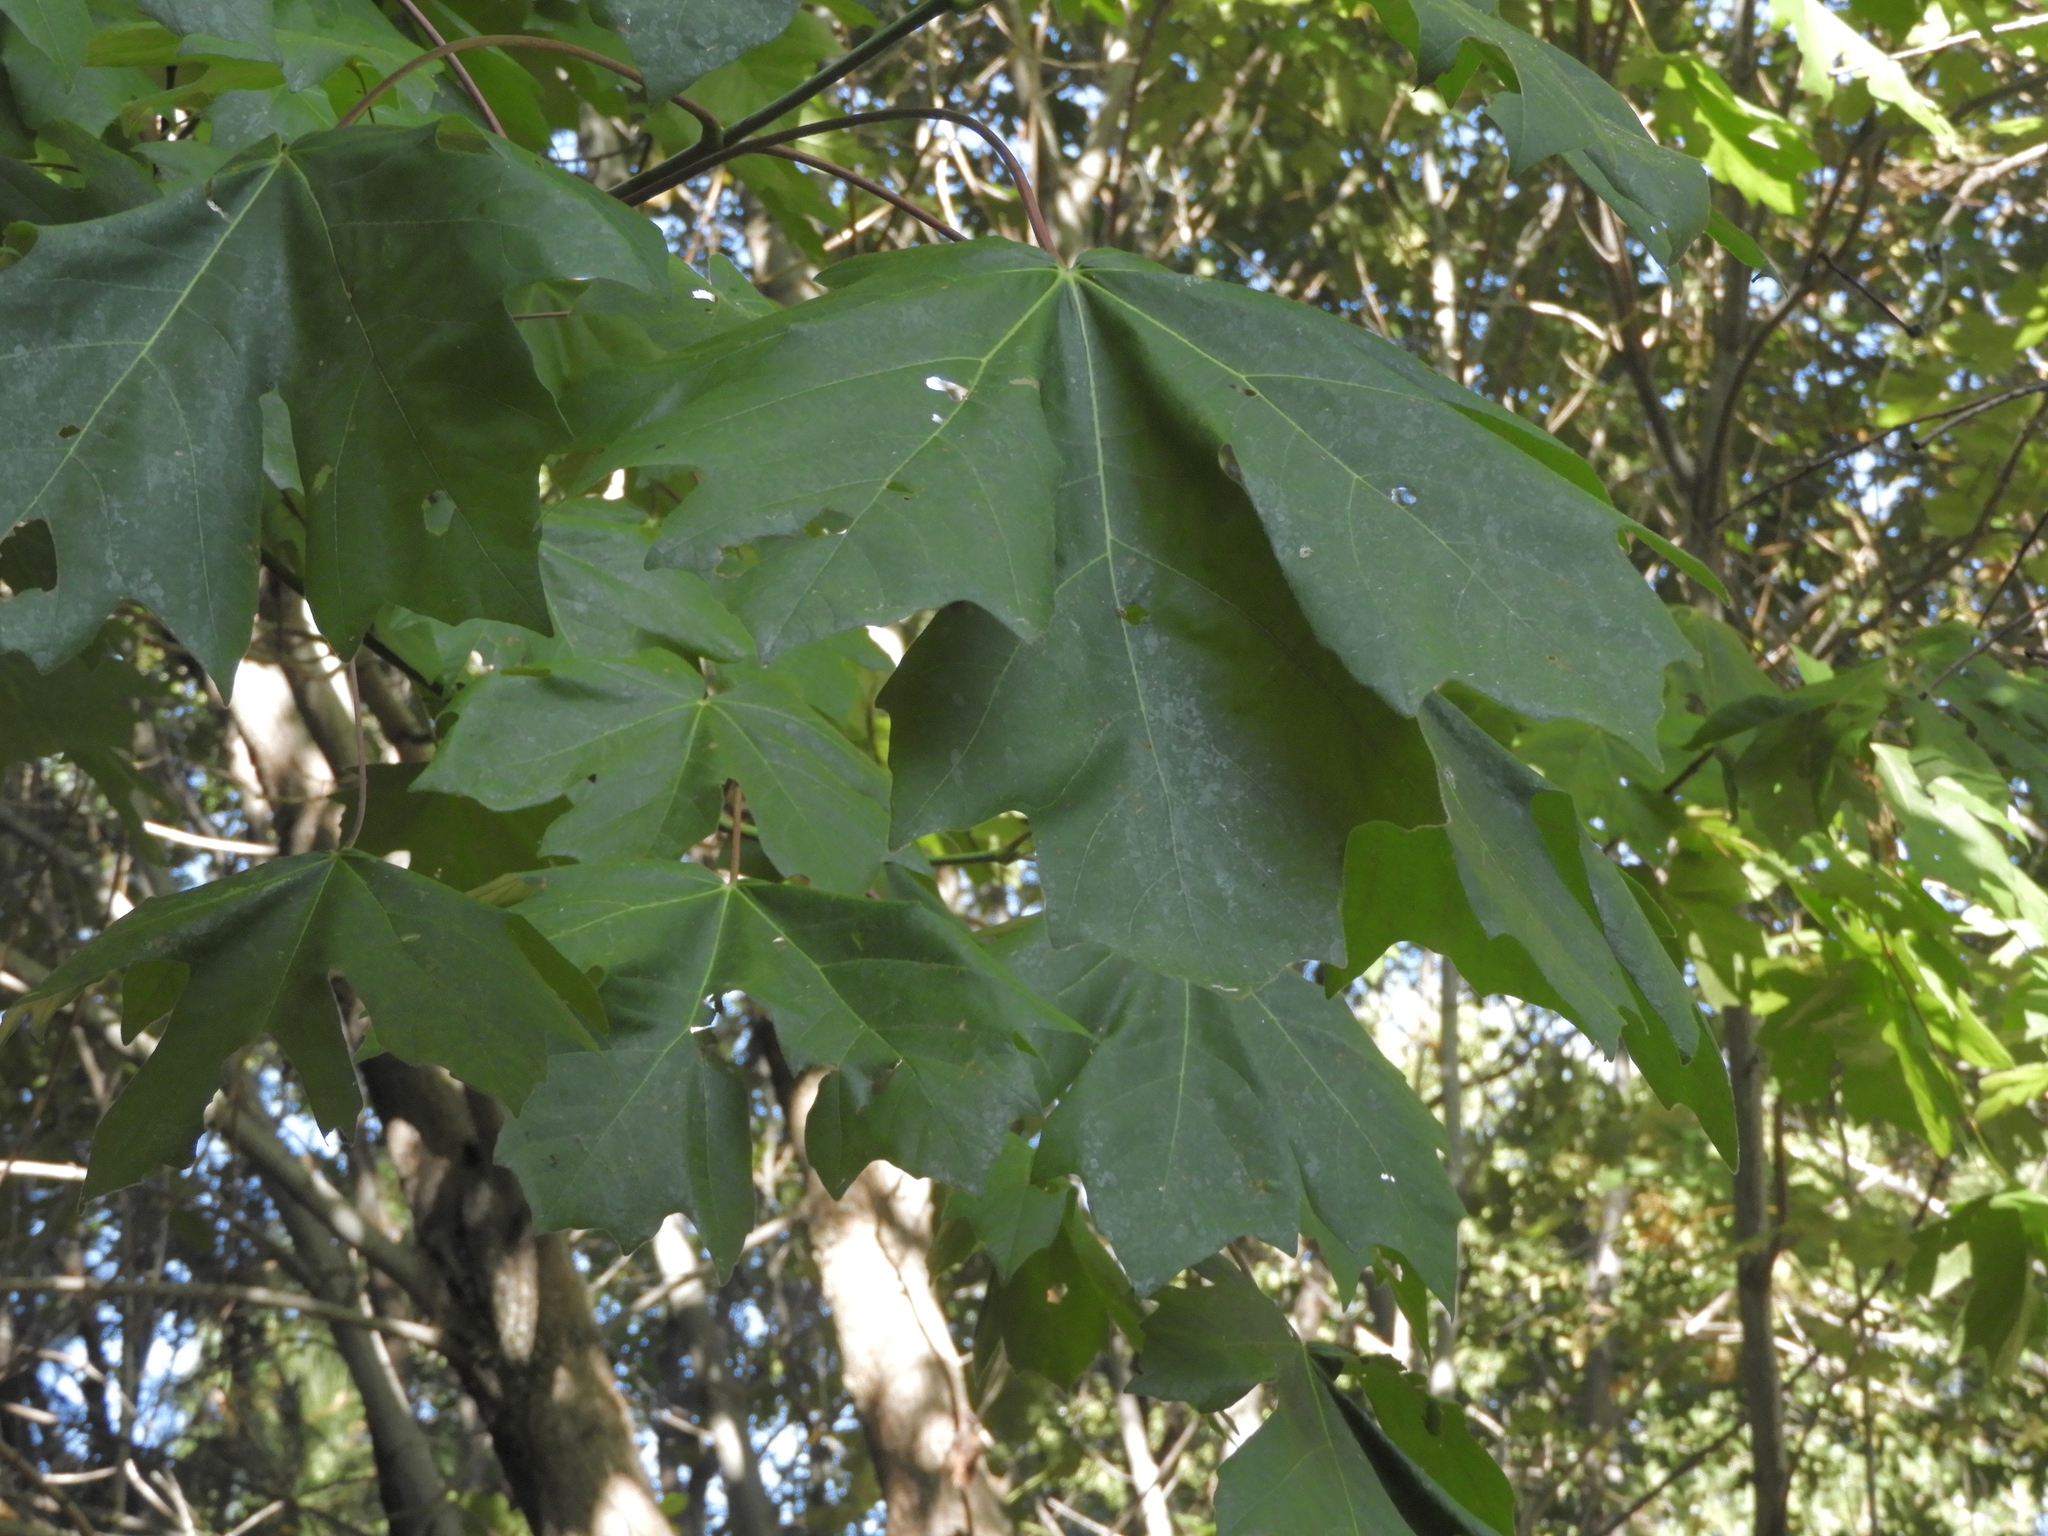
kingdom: Plantae
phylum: Tracheophyta
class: Magnoliopsida
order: Sapindales
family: Sapindaceae
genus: Acer
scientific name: Acer macrophyllum
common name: Oregon maple
